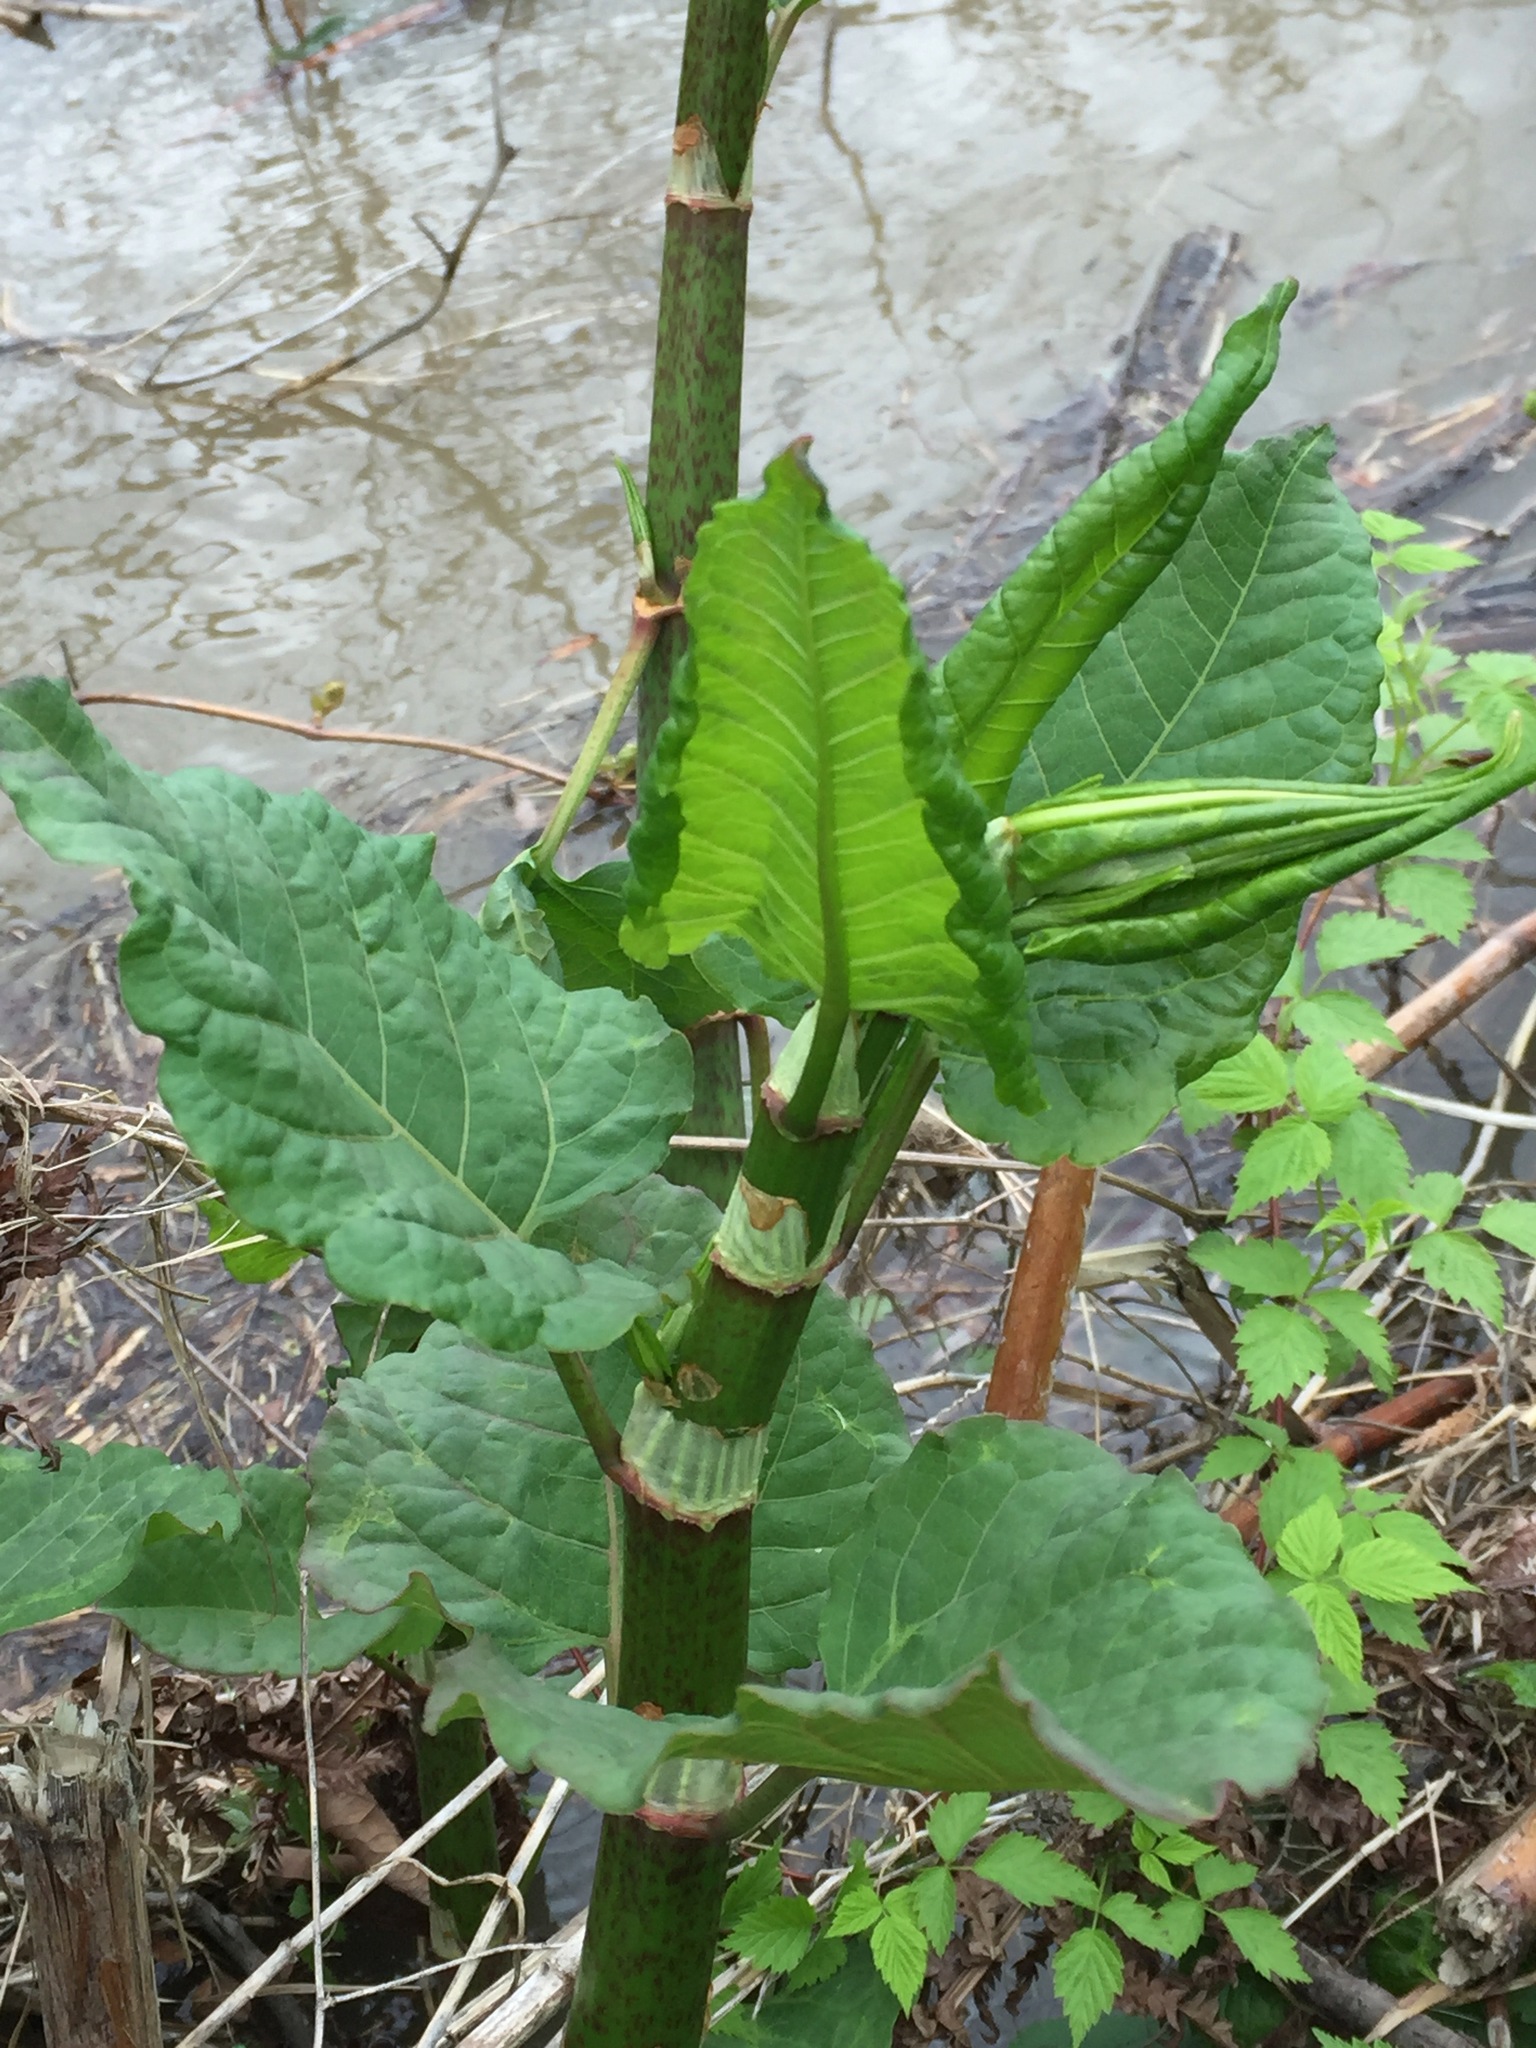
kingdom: Plantae
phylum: Tracheophyta
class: Magnoliopsida
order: Caryophyllales
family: Polygonaceae
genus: Reynoutria
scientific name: Reynoutria japonica
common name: Japanese knotweed
